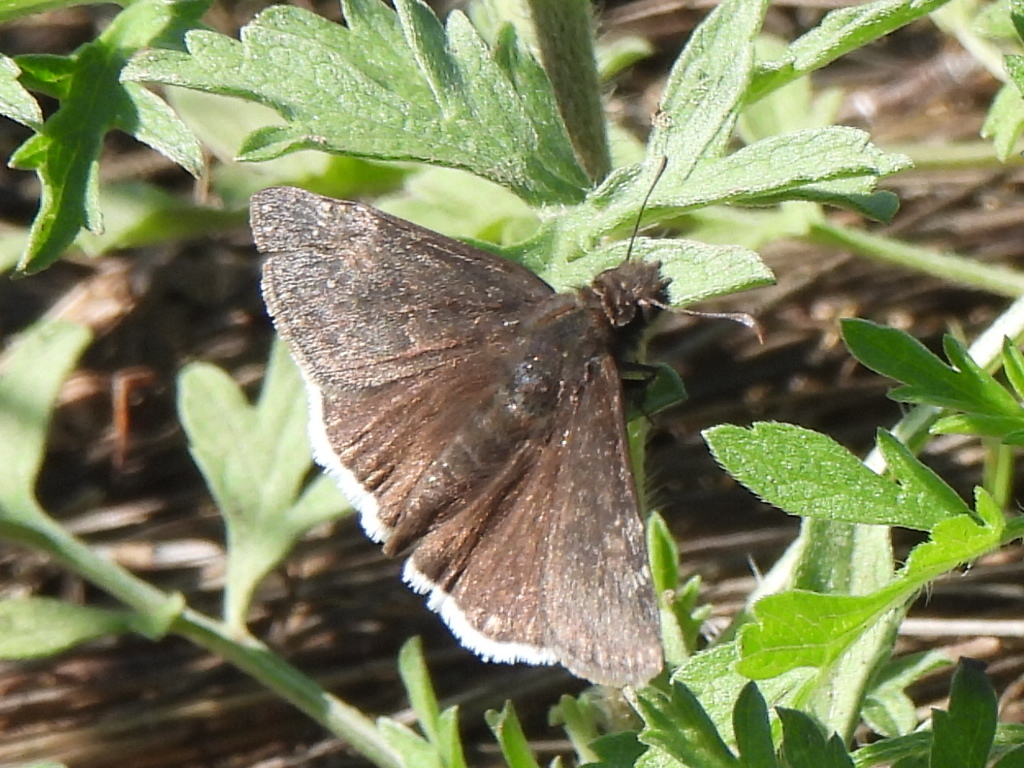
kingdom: Animalia
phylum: Arthropoda
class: Insecta
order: Lepidoptera
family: Hesperiidae
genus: Erynnis
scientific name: Erynnis funeralis
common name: Funereal duskywing
